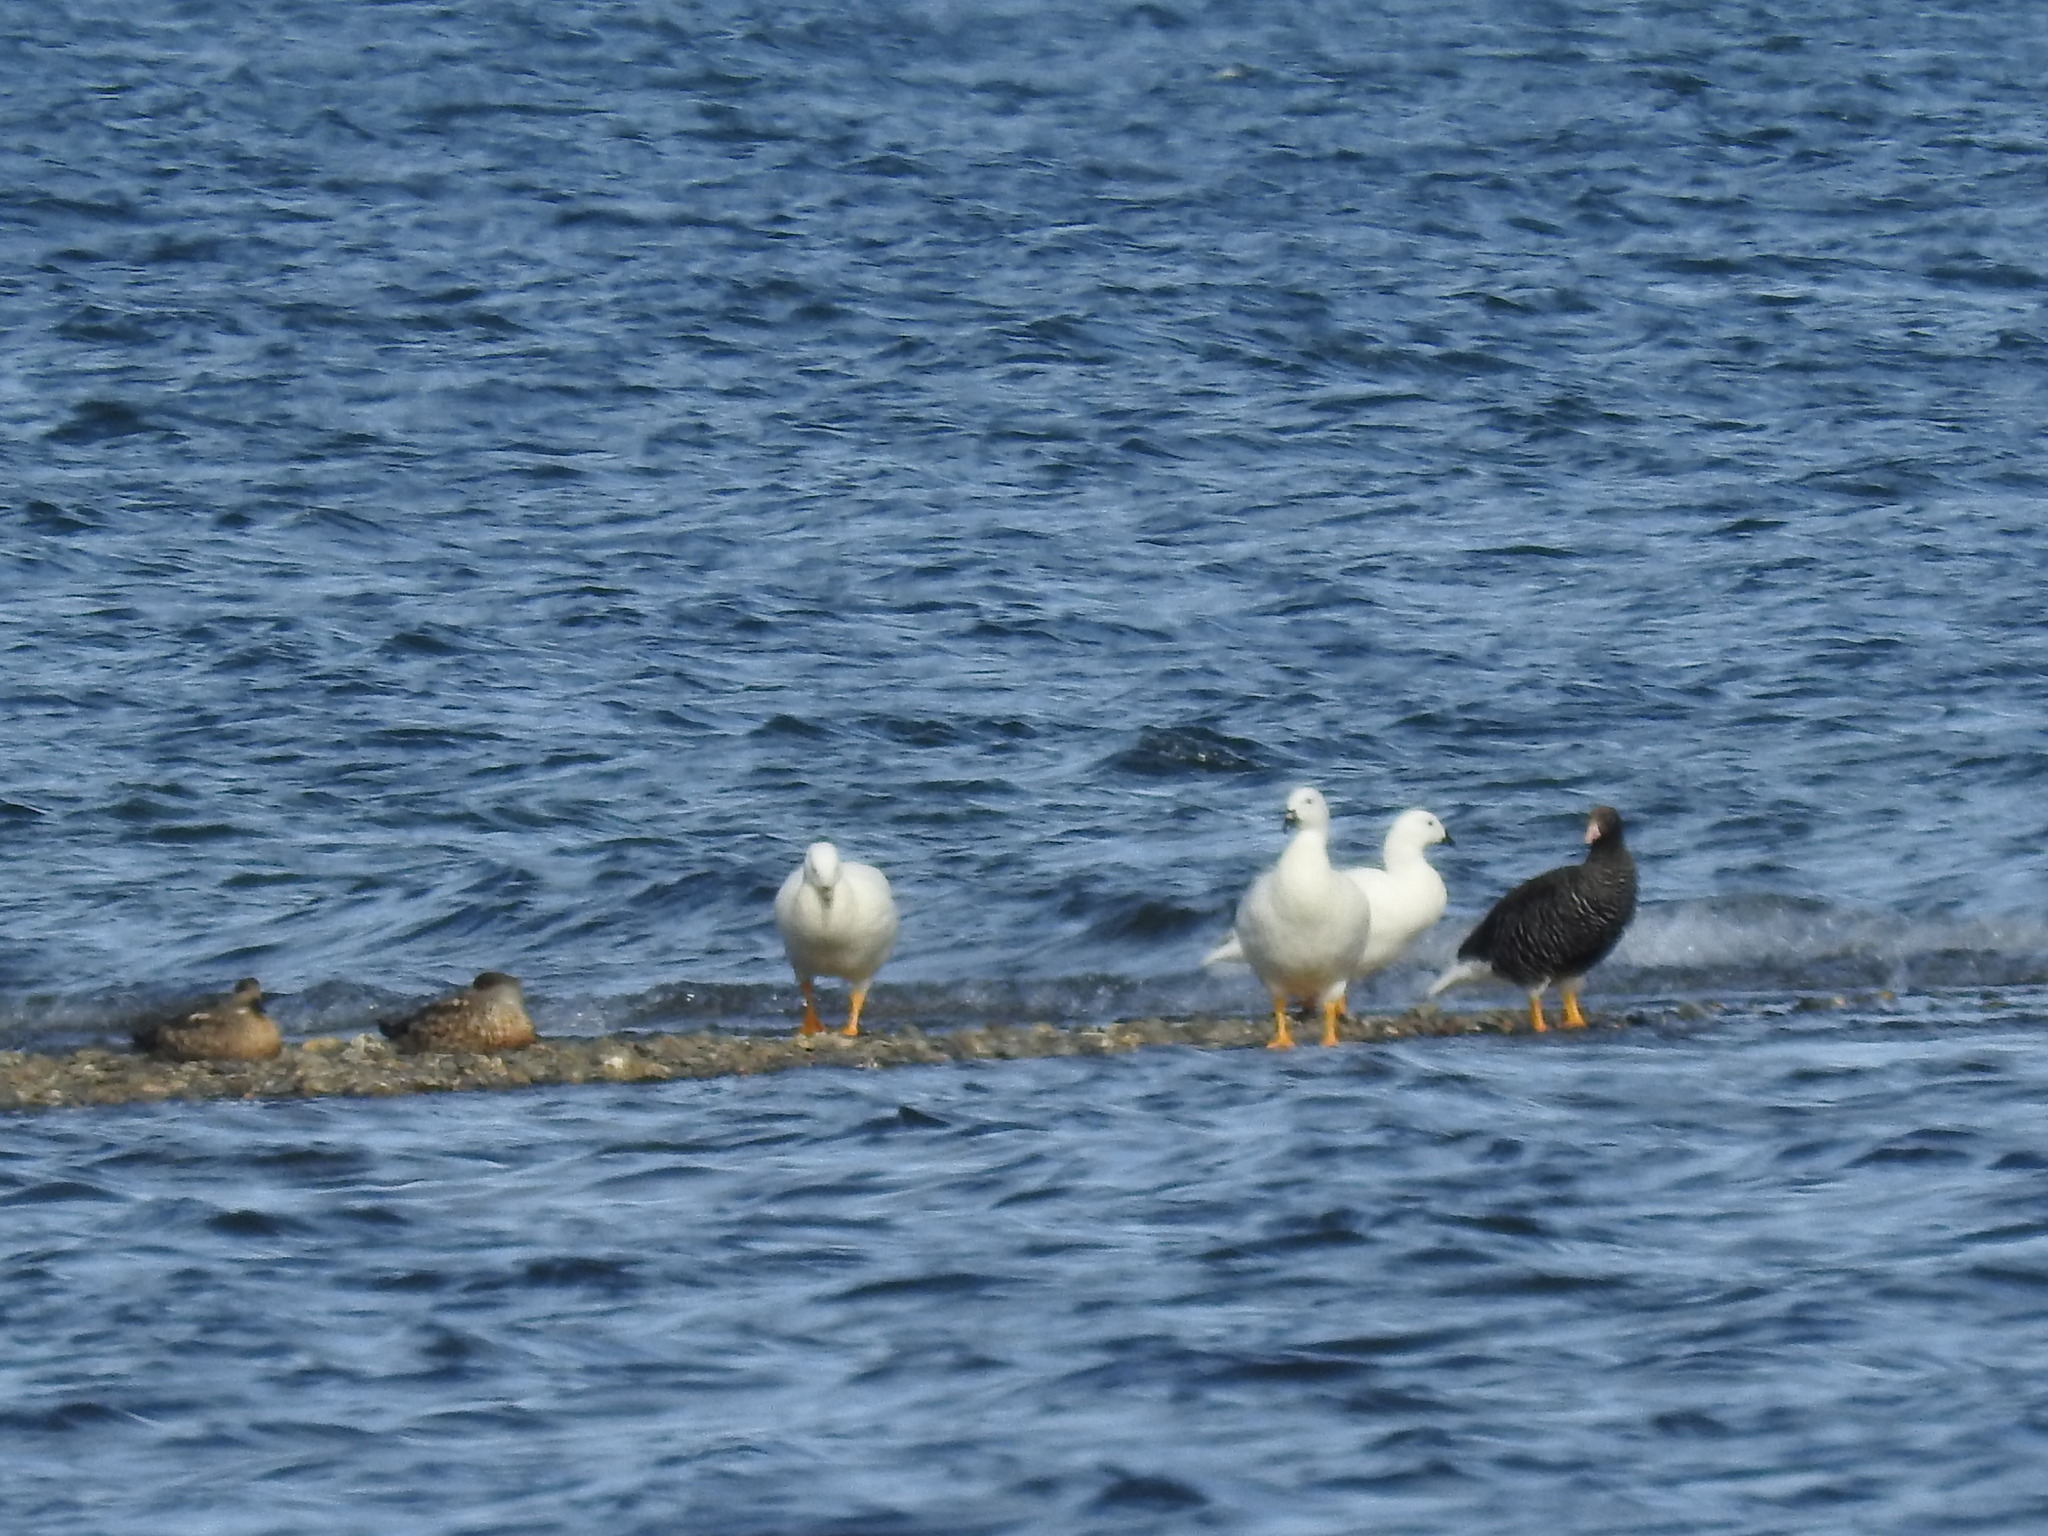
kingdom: Animalia
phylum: Chordata
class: Aves
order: Anseriformes
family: Anatidae
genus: Chloephaga
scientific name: Chloephaga hybrida
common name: Kelp goose
